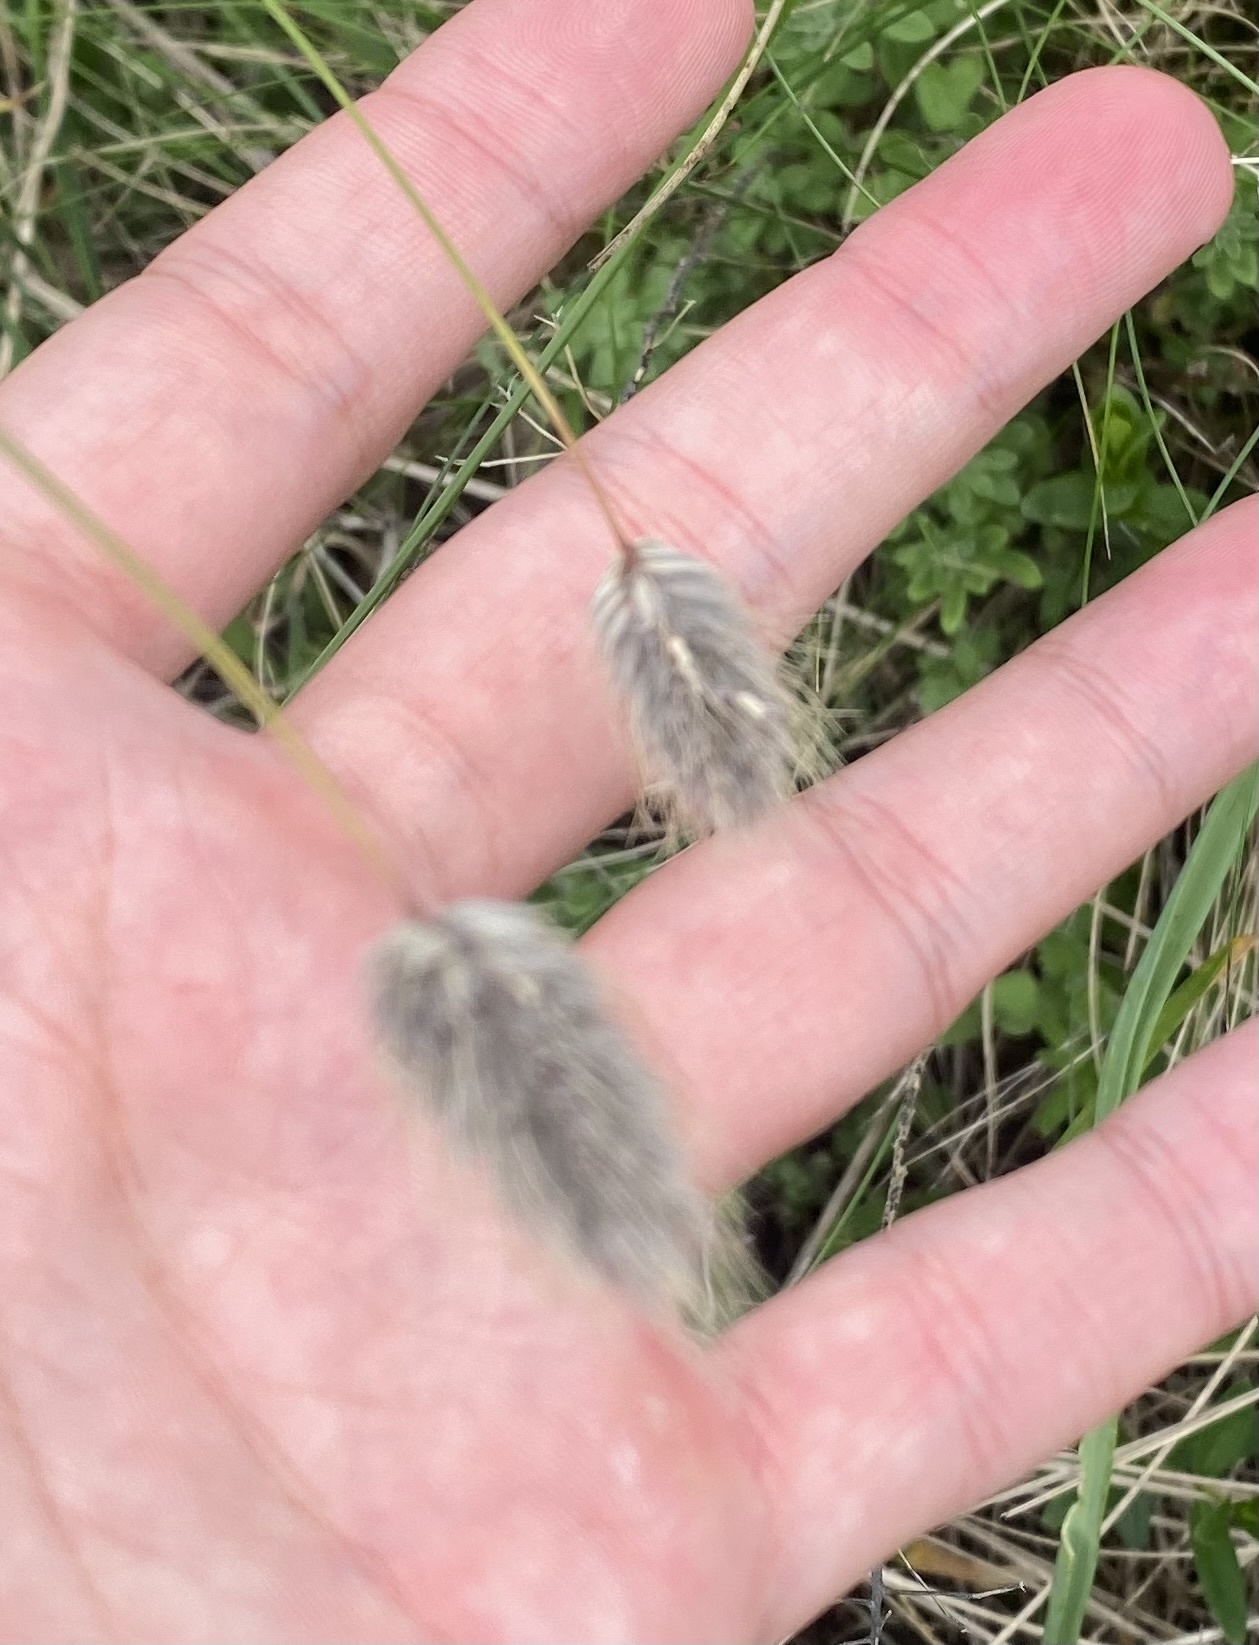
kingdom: Plantae
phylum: Tracheophyta
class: Liliopsida
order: Poales
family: Poaceae
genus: Alopecurus
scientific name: Alopecurus vaginatus
